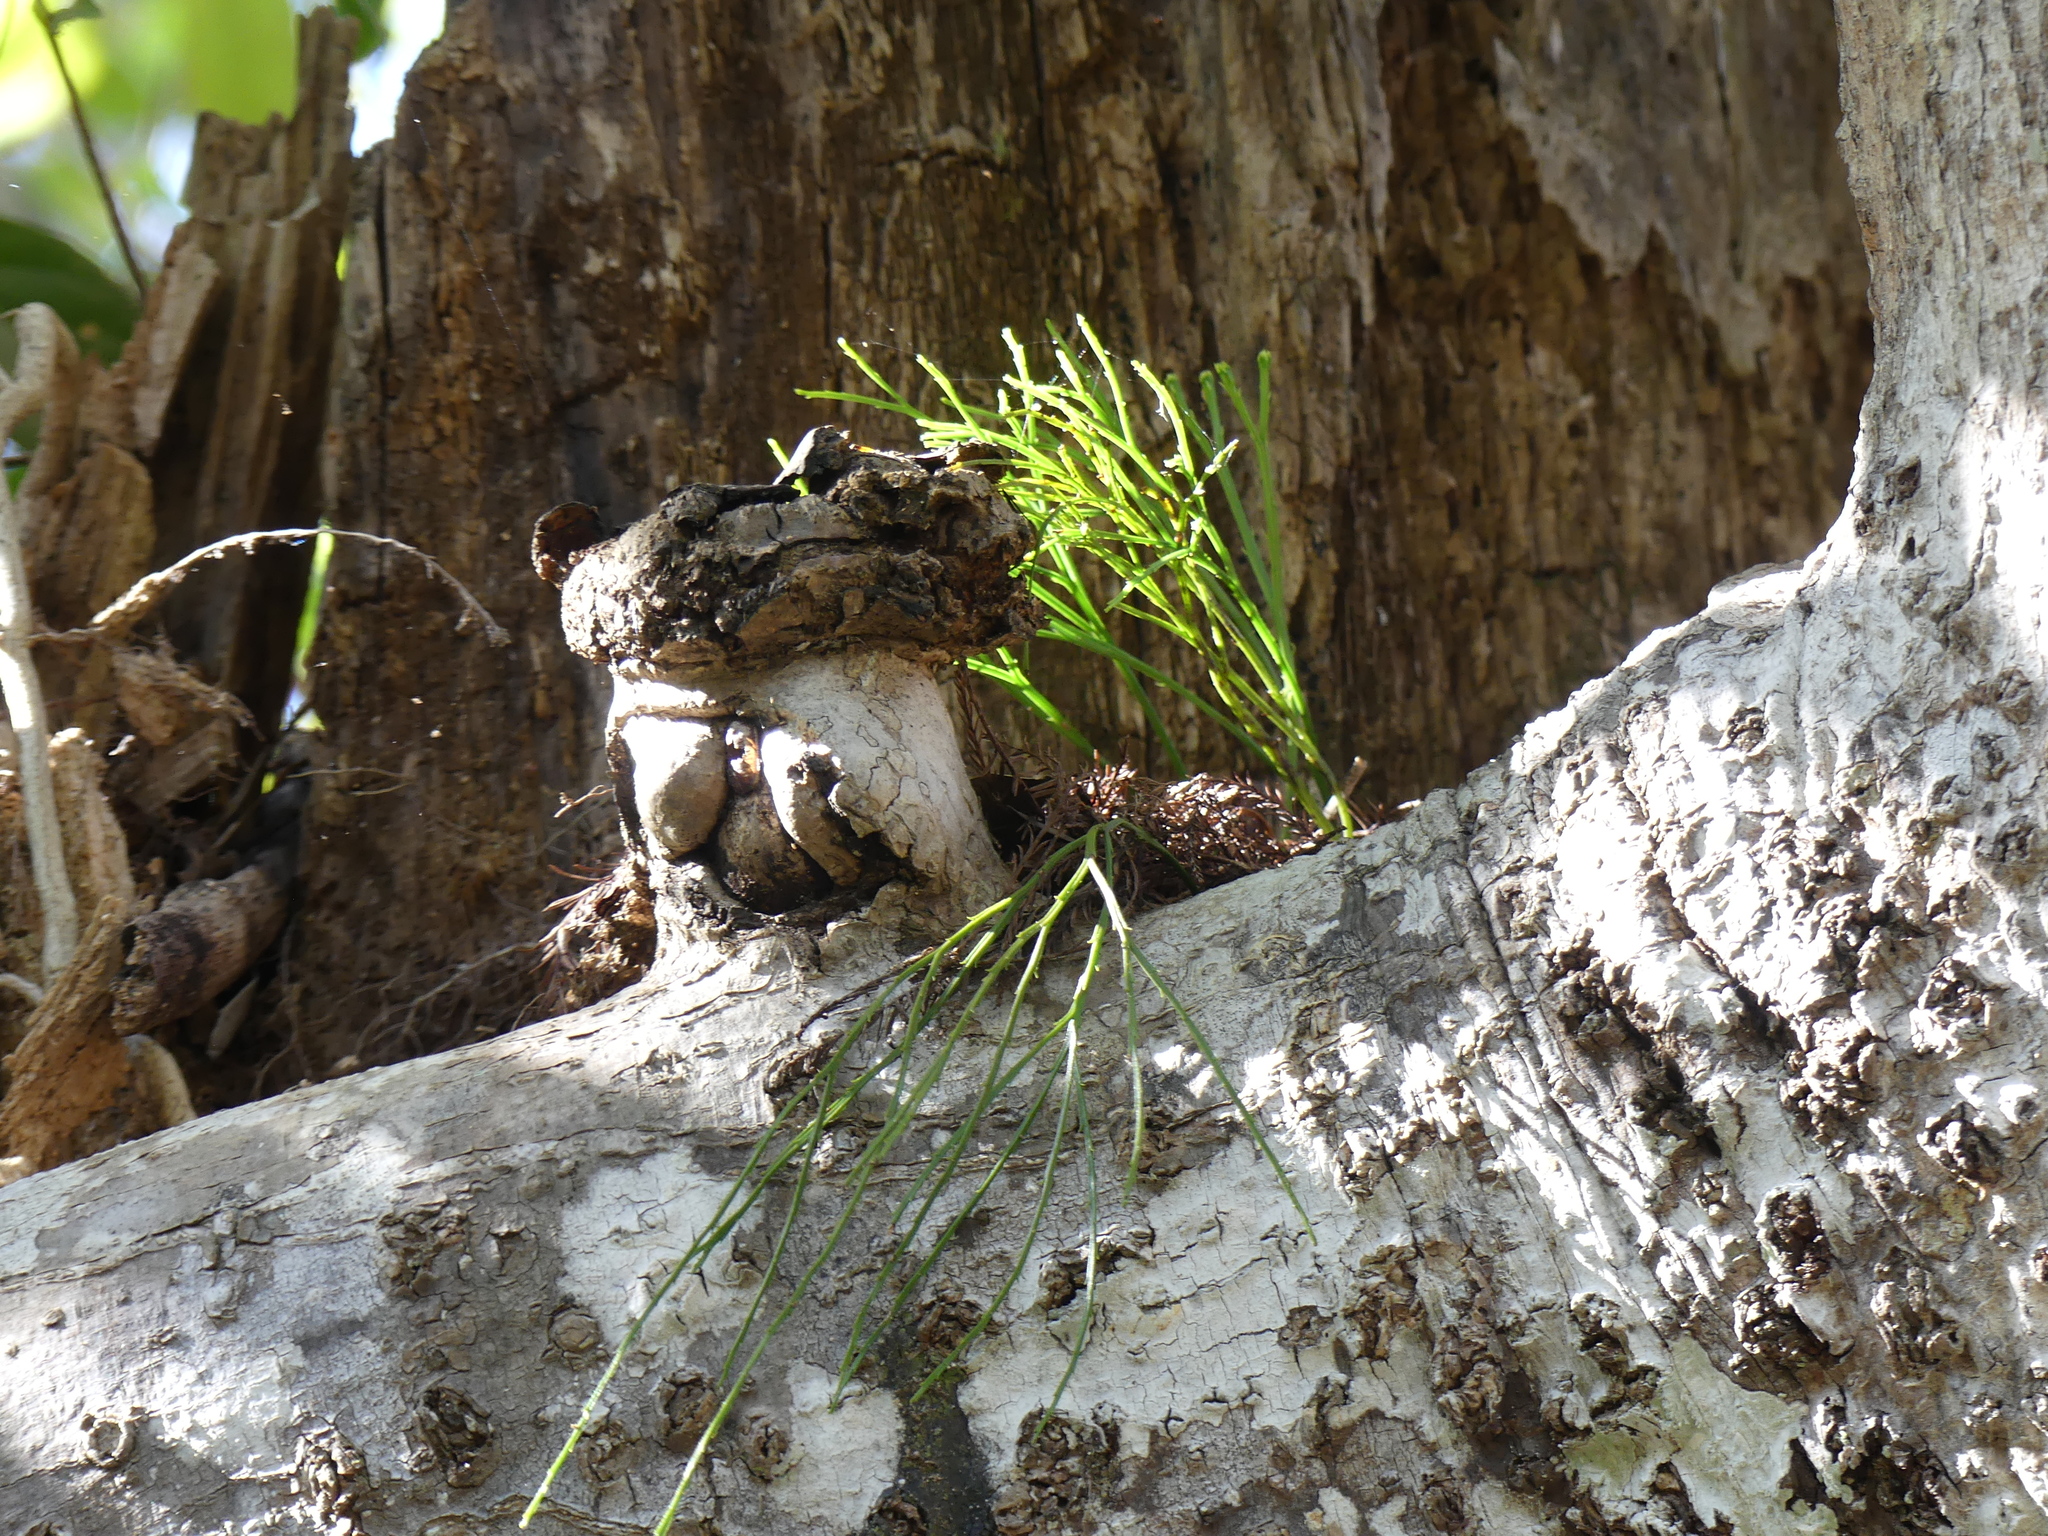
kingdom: Plantae
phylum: Tracheophyta
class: Polypodiopsida
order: Psilotales
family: Psilotaceae
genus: Psilotum
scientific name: Psilotum nudum
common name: Skeleton fork fern
